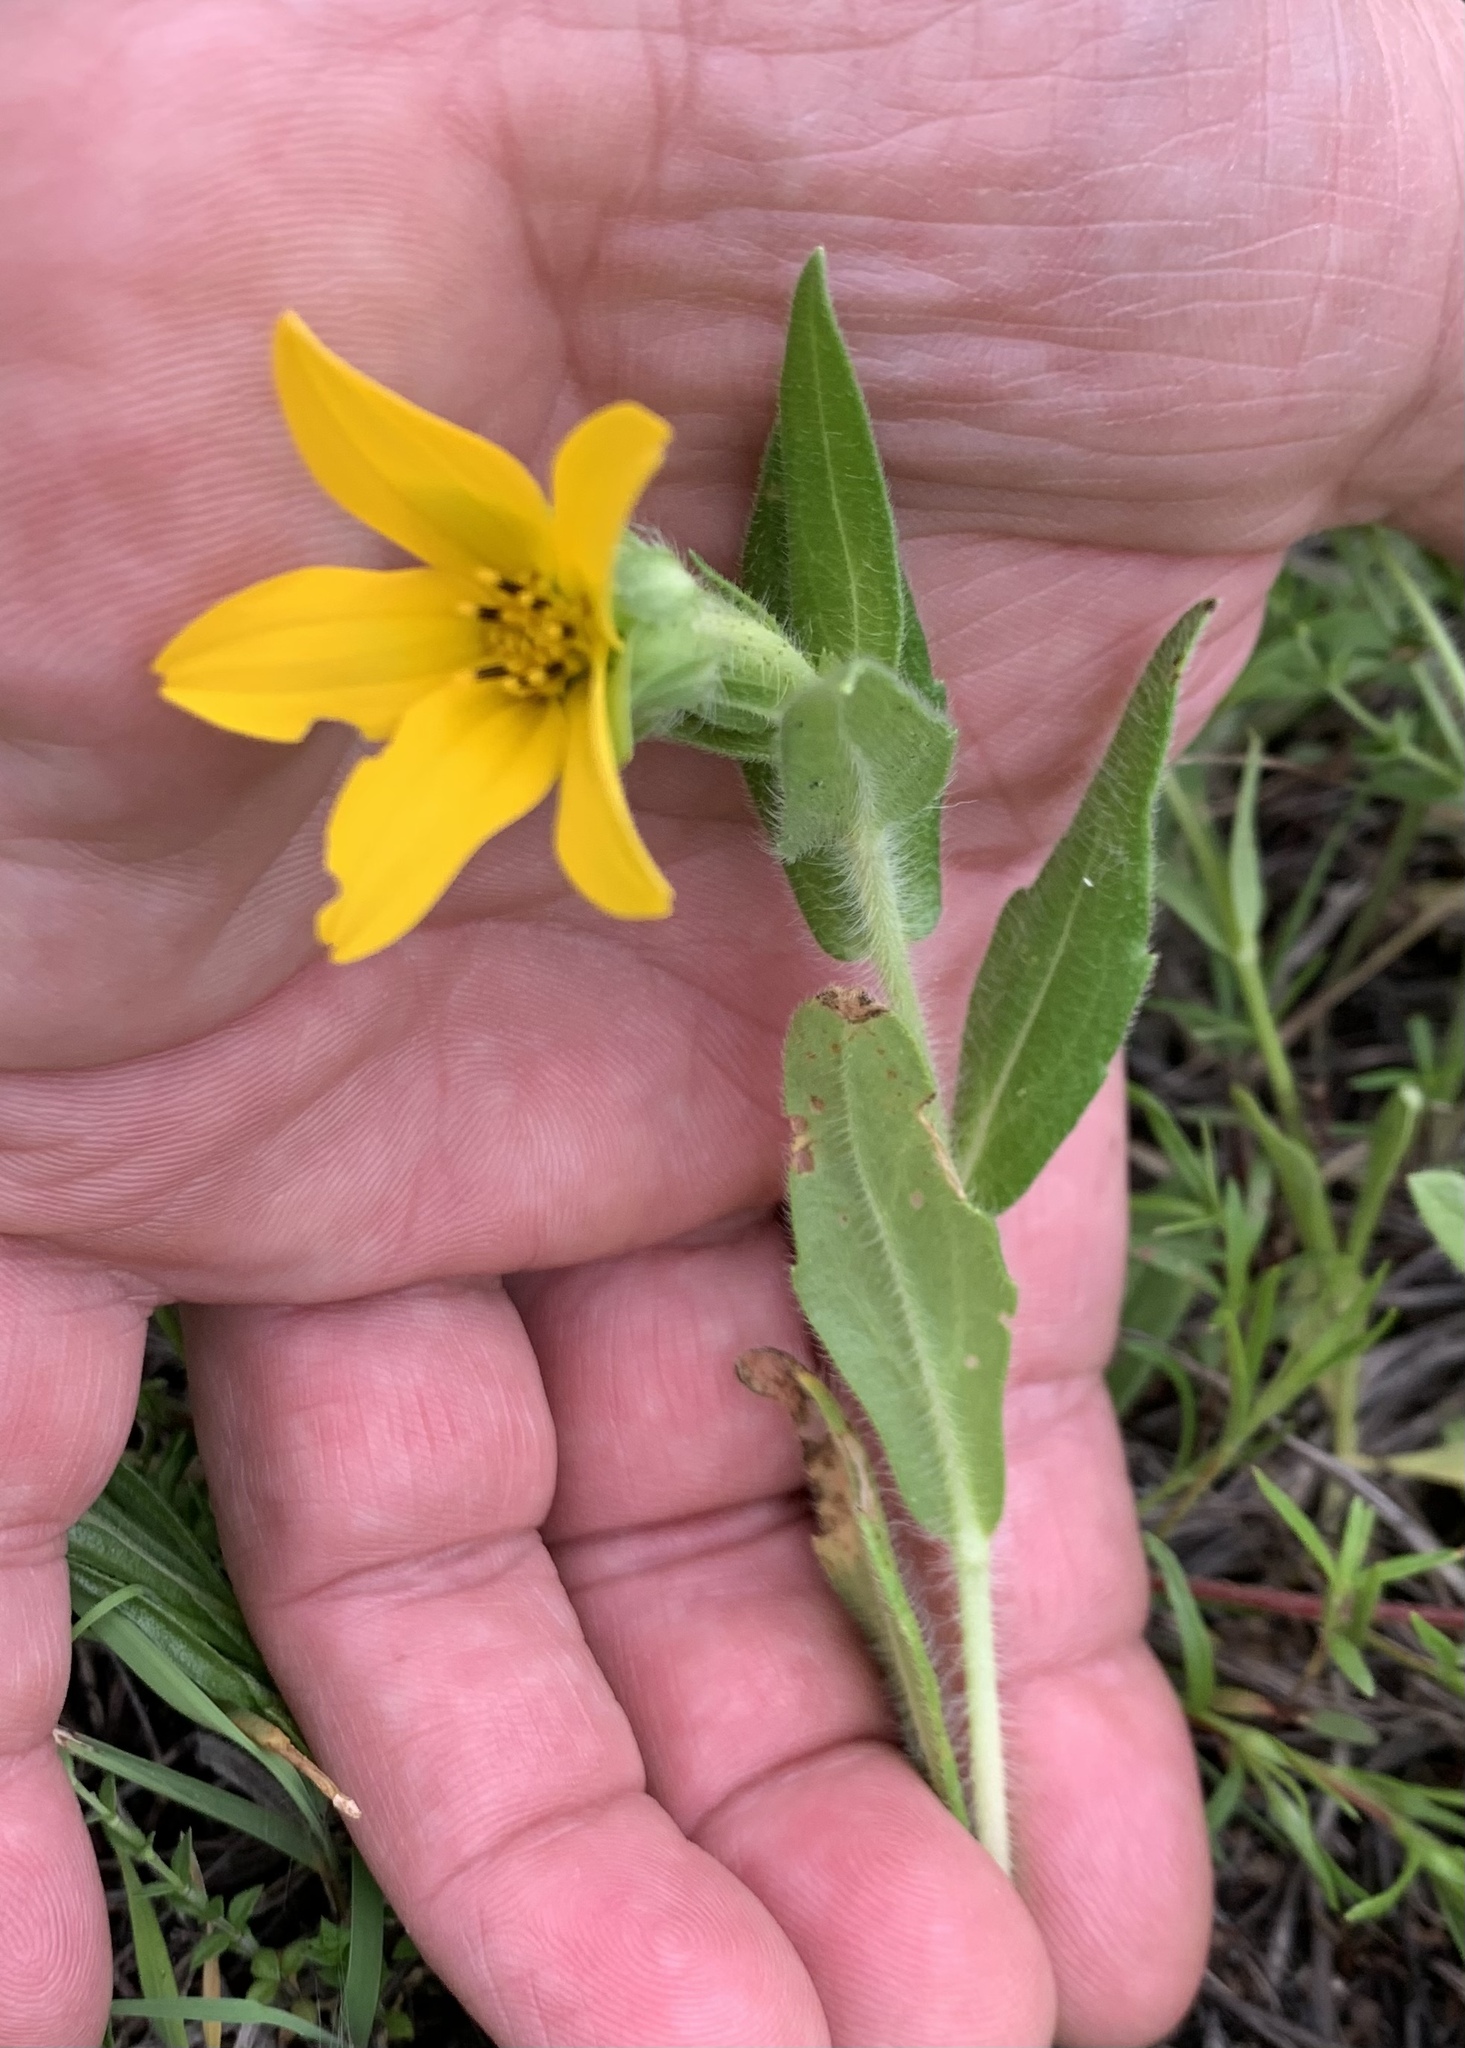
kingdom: Plantae
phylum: Tracheophyta
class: Magnoliopsida
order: Asterales
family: Asteraceae
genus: Lindheimera
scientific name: Lindheimera texana
